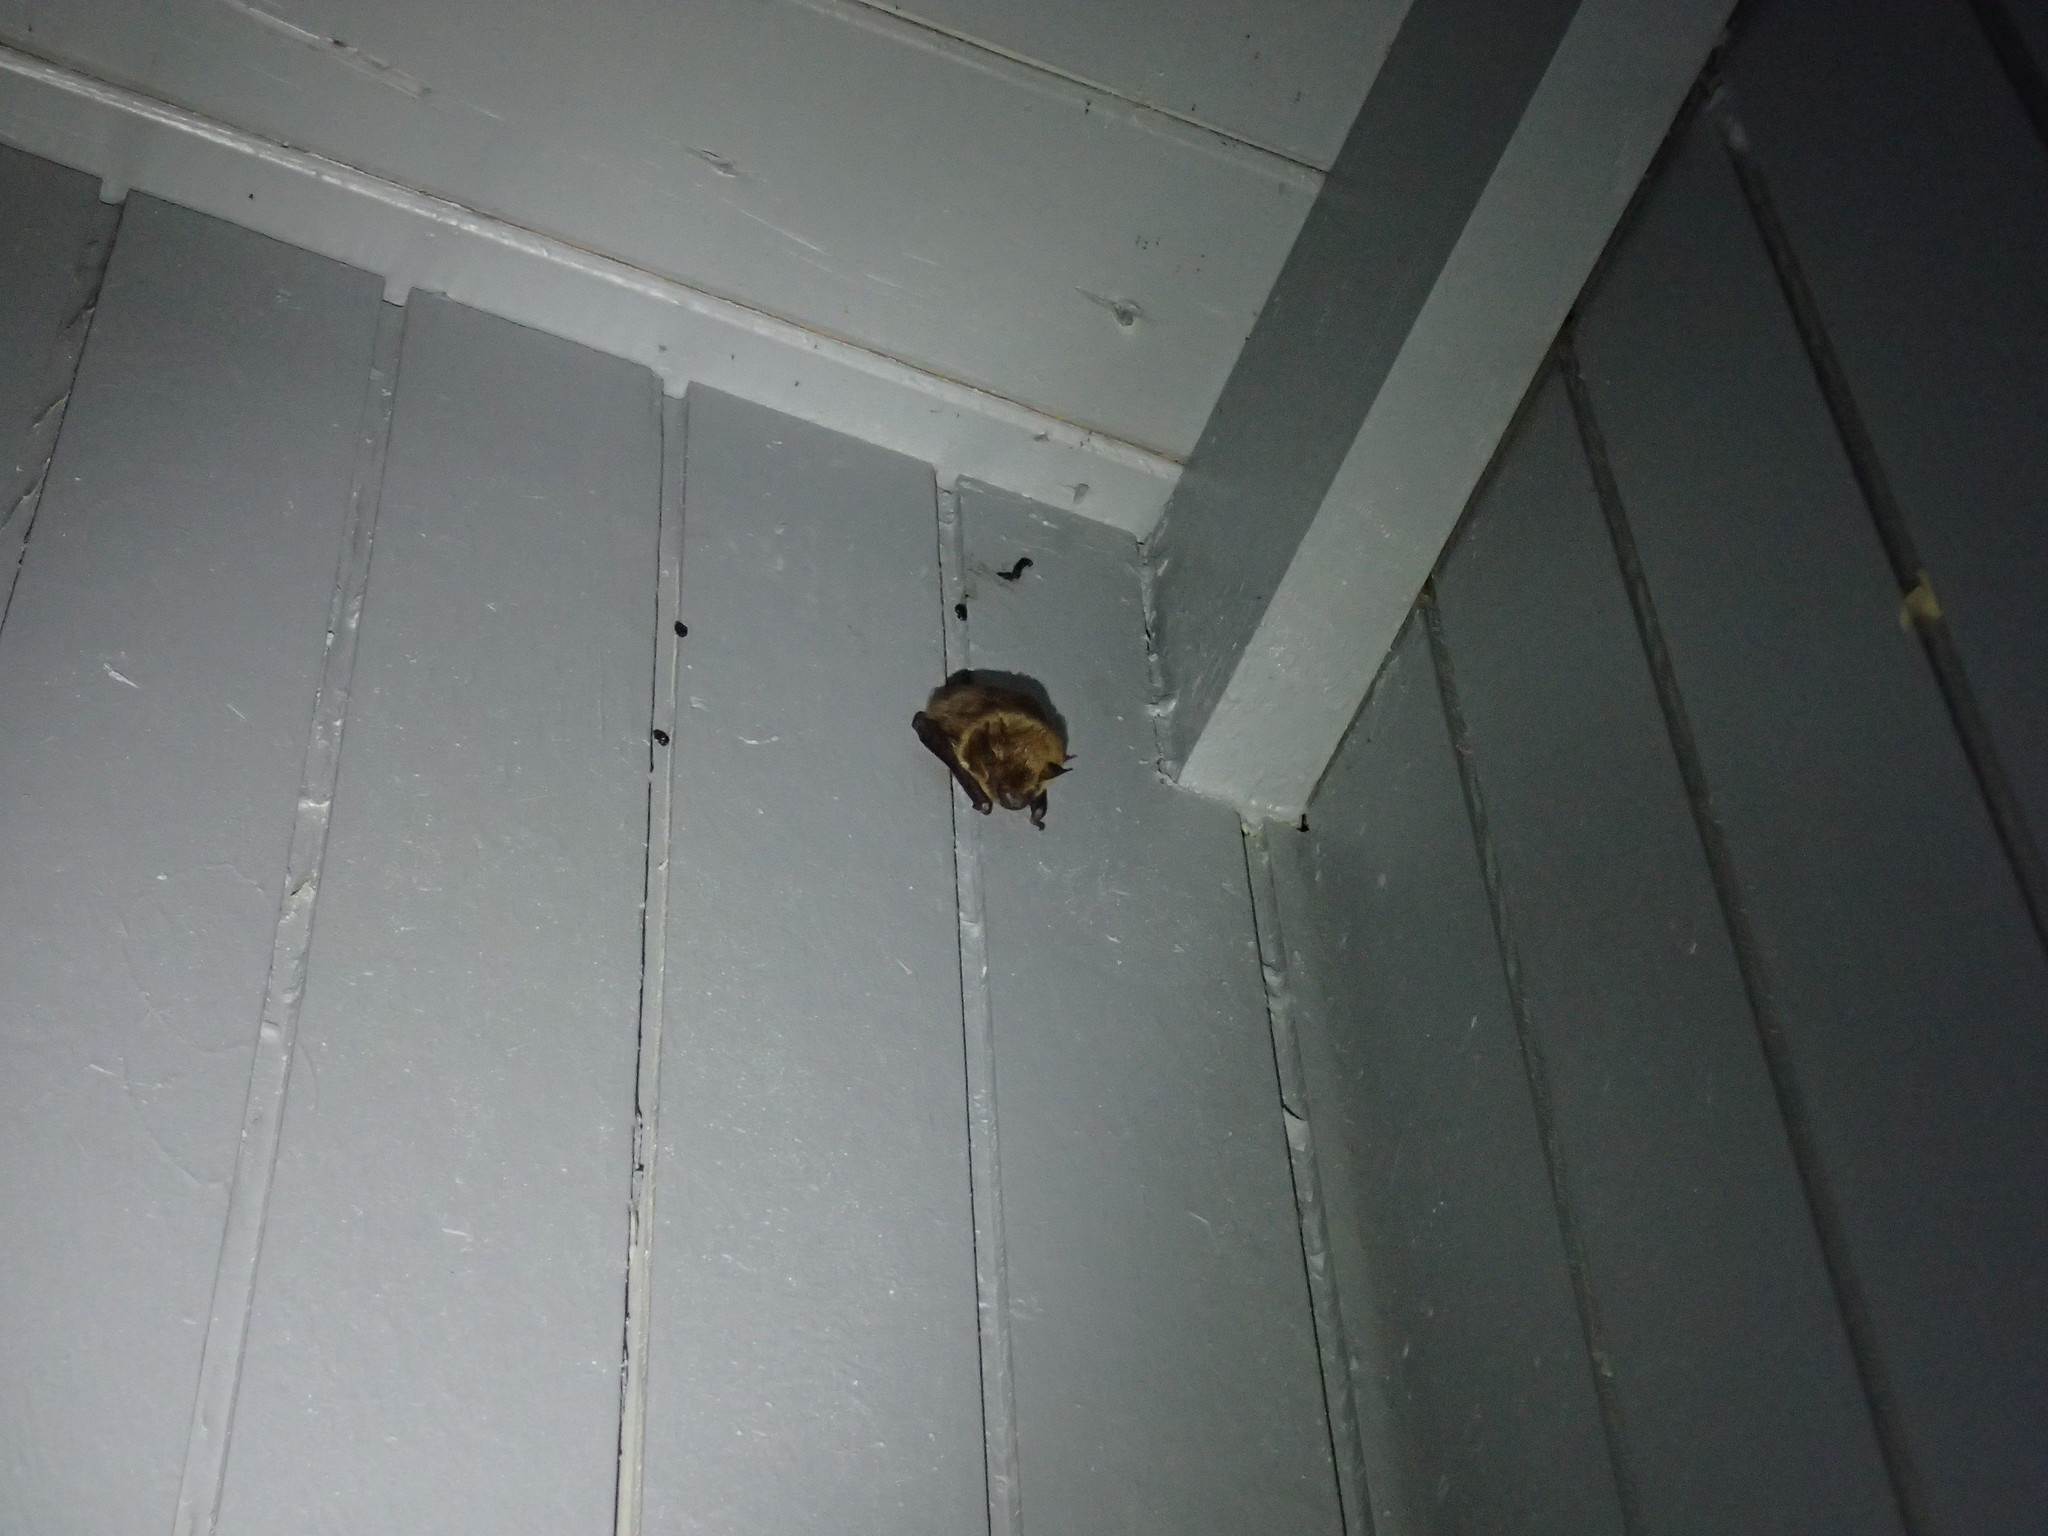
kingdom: Animalia
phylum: Chordata
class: Mammalia
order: Chiroptera
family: Vespertilionidae
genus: Eptesicus
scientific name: Eptesicus fuscus
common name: Big brown bat
